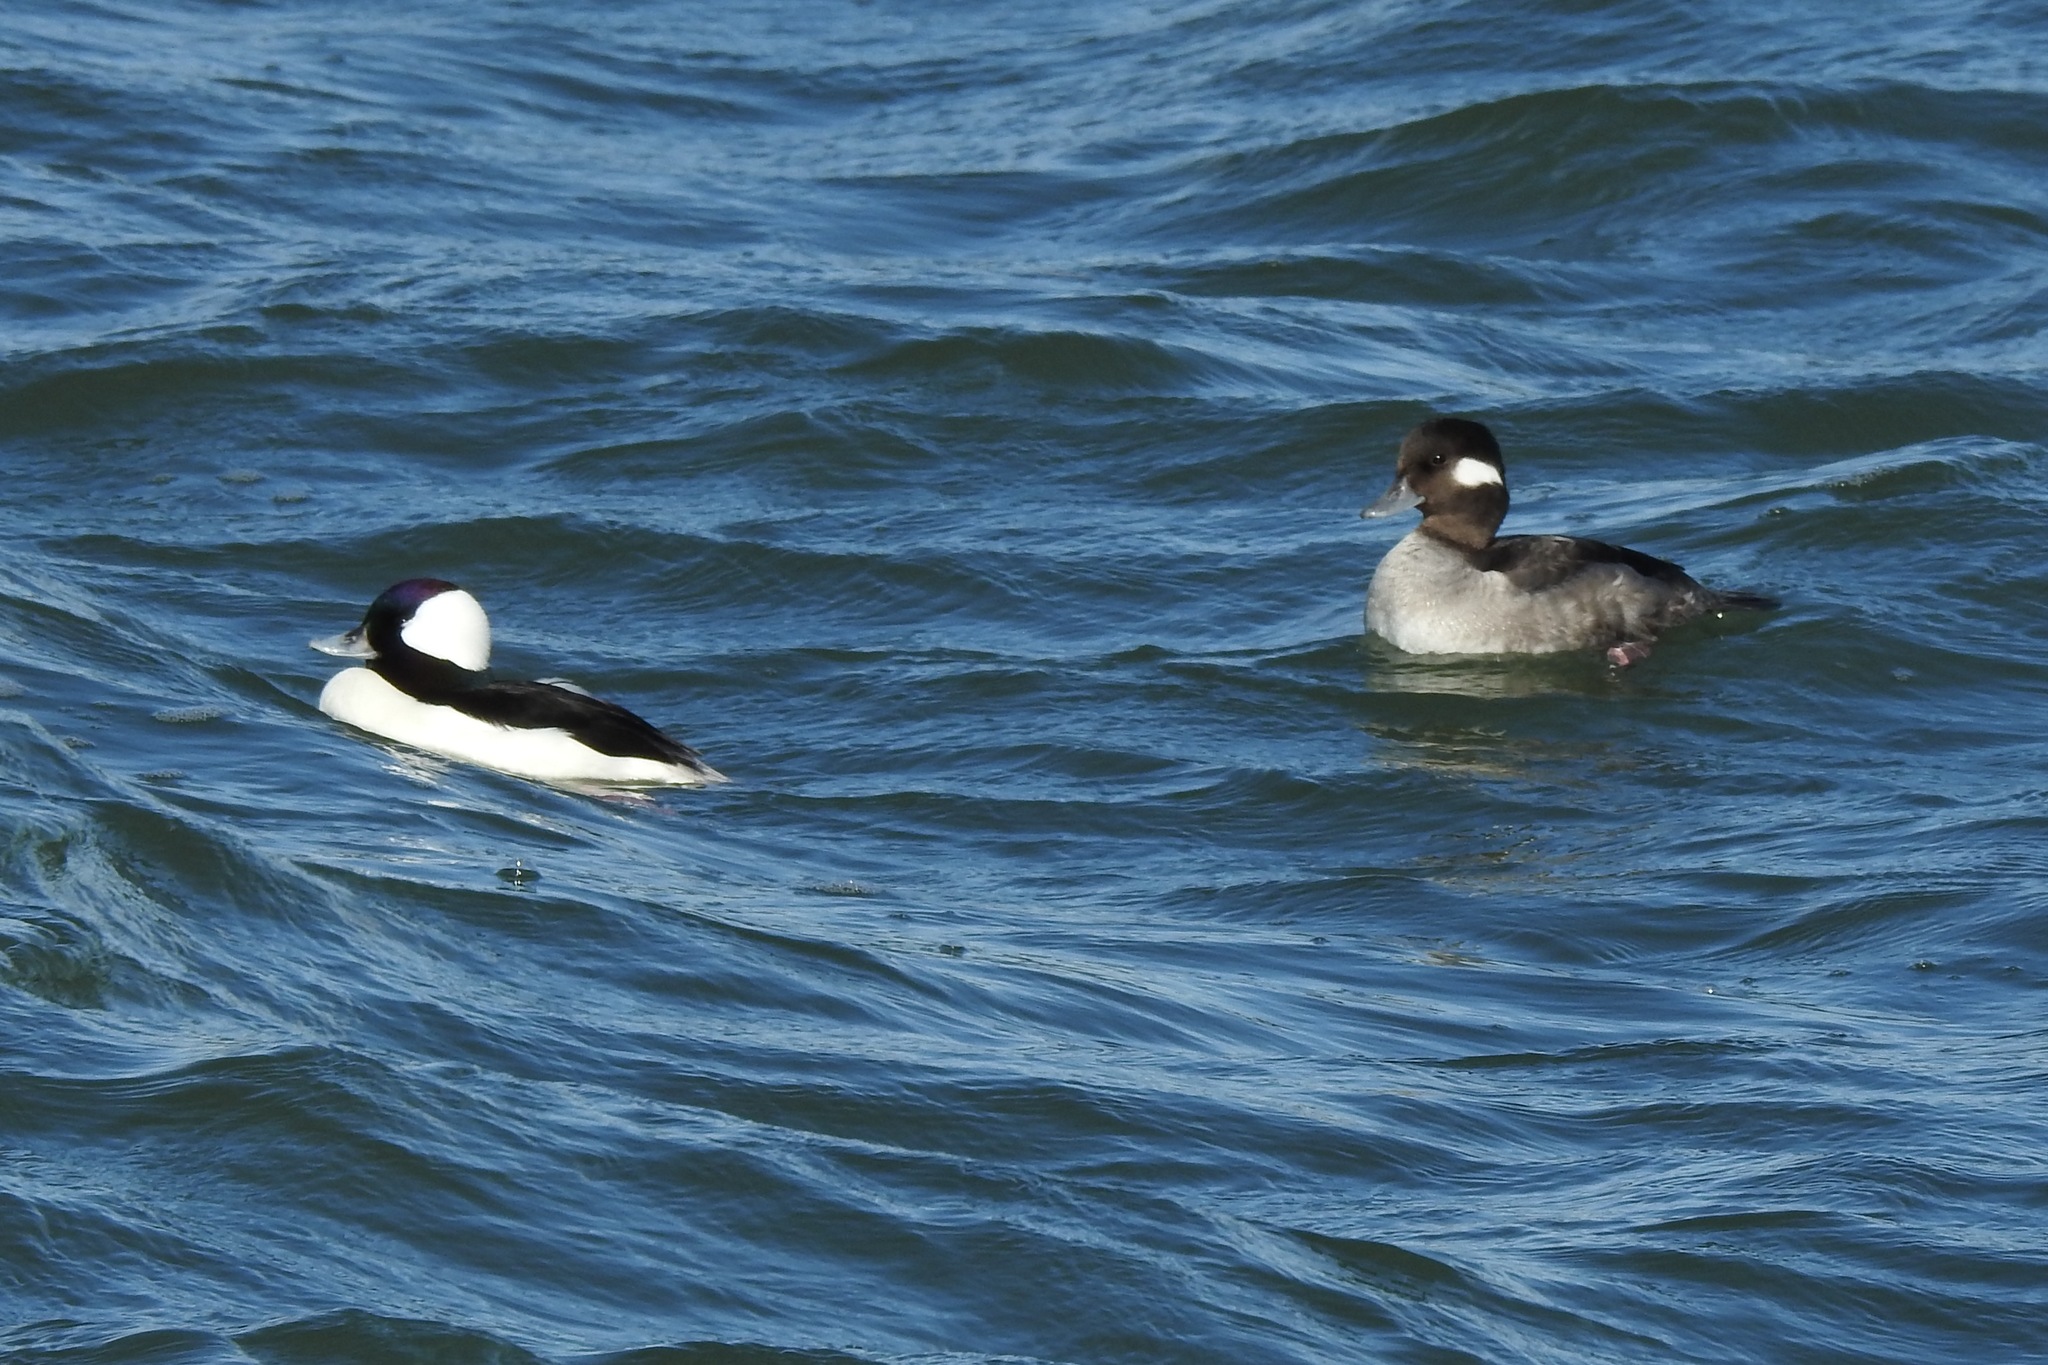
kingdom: Animalia
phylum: Chordata
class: Aves
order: Anseriformes
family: Anatidae
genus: Bucephala
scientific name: Bucephala albeola
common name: Bufflehead
